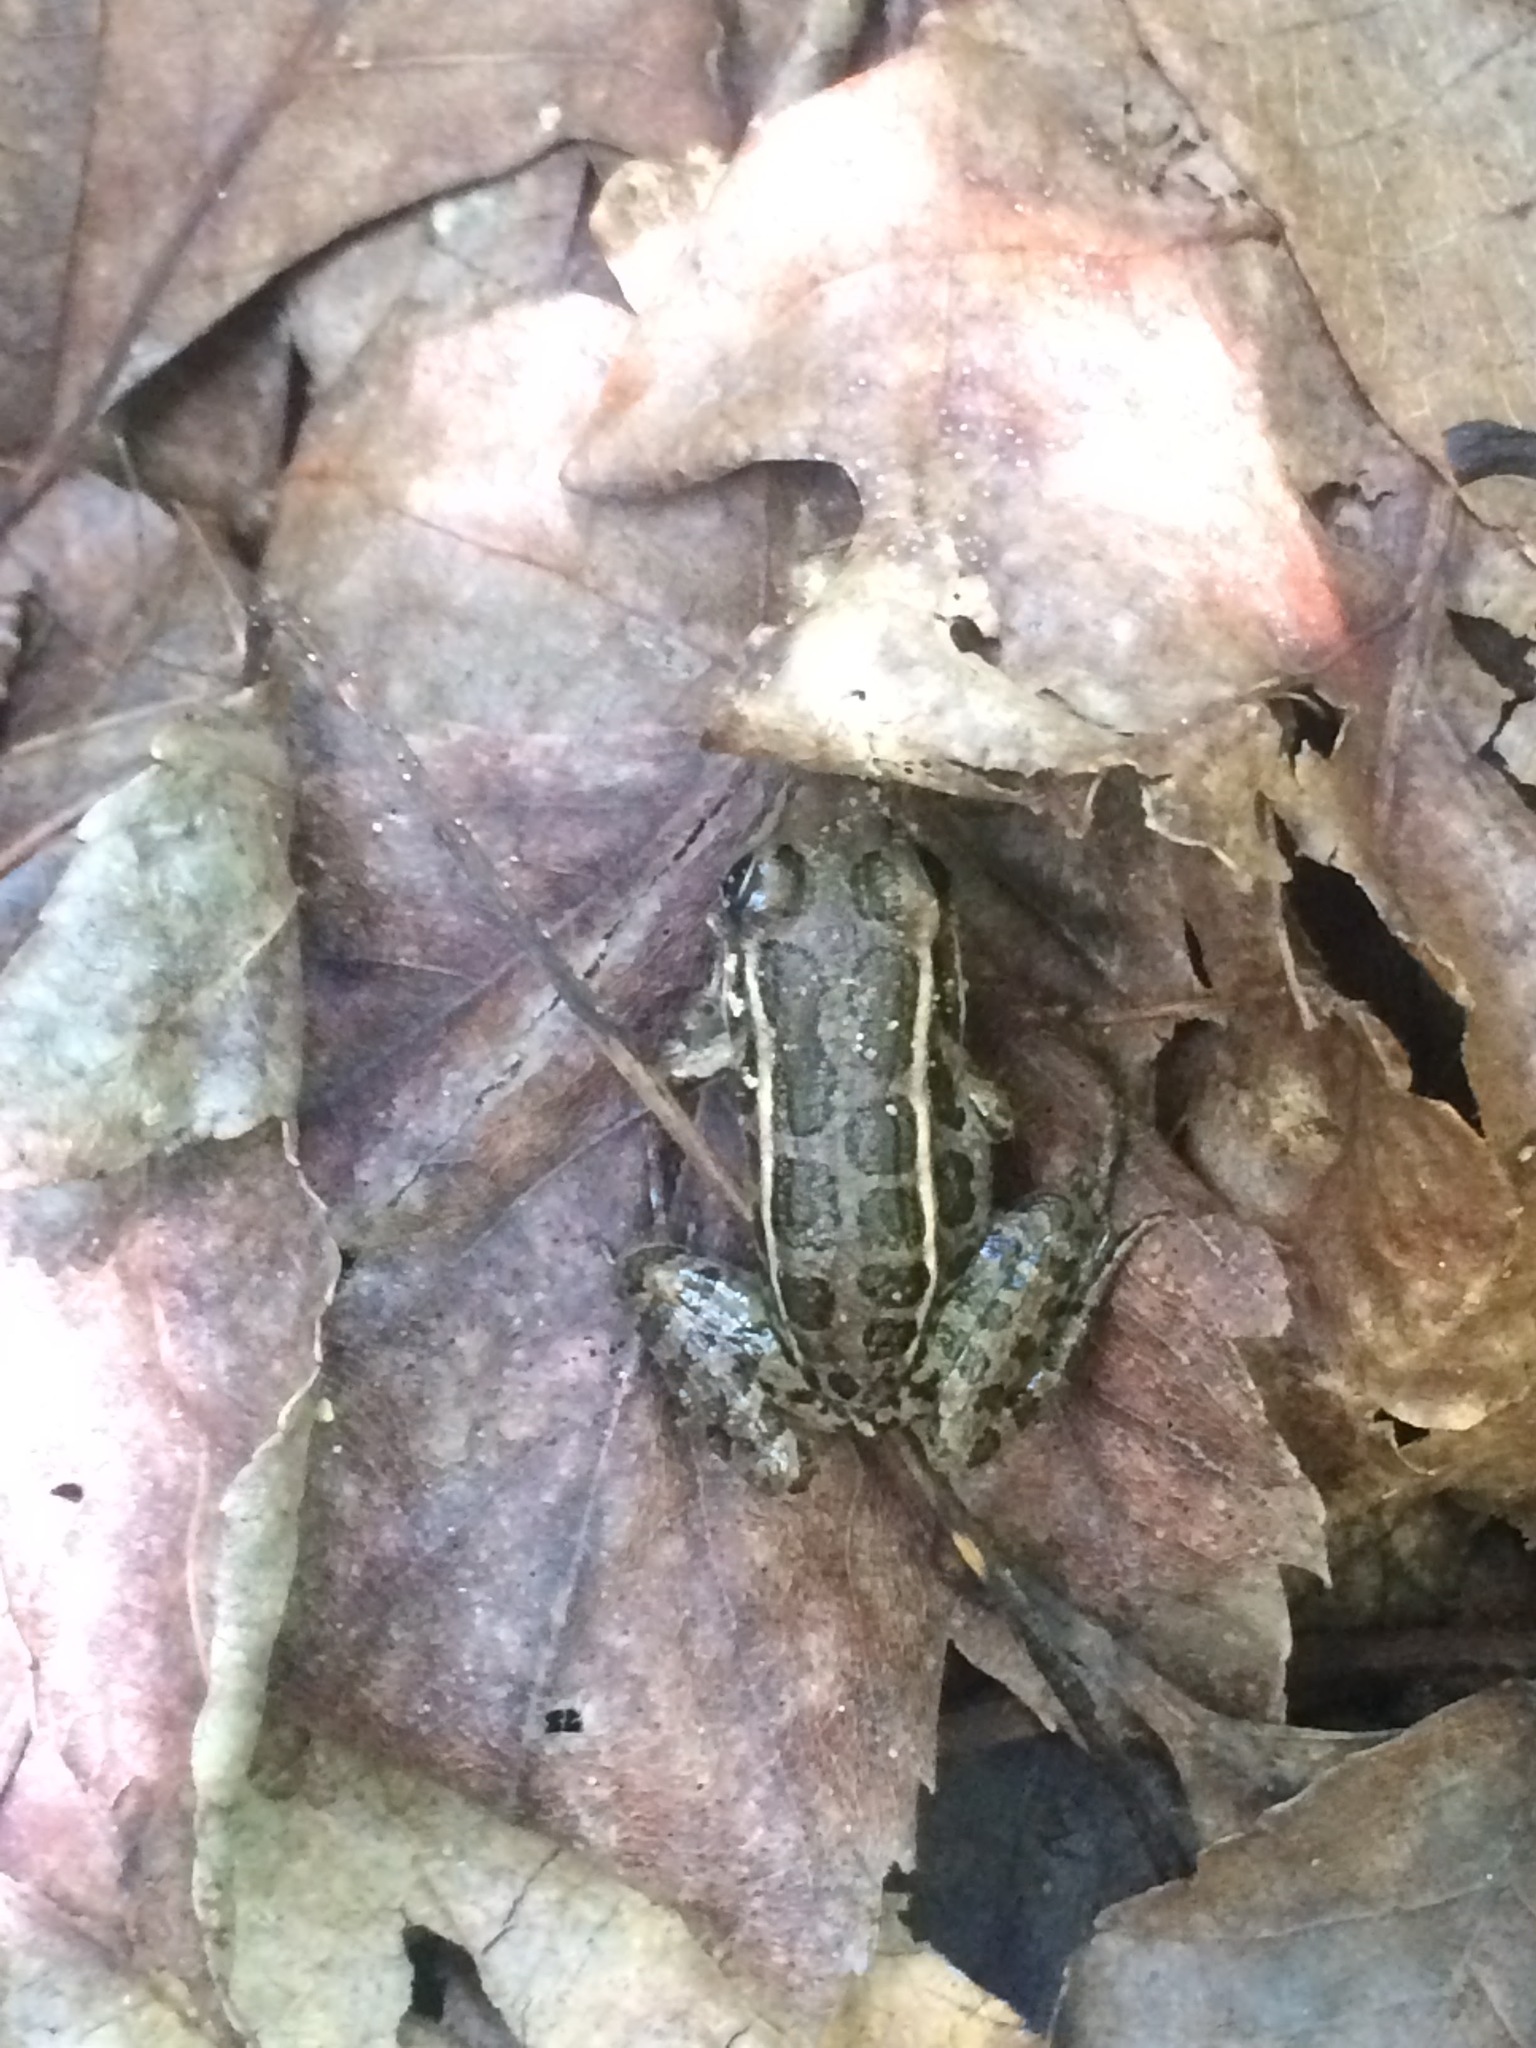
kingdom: Animalia
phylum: Chordata
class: Amphibia
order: Anura
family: Ranidae
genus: Lithobates
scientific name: Lithobates palustris
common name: Pickerel frog
